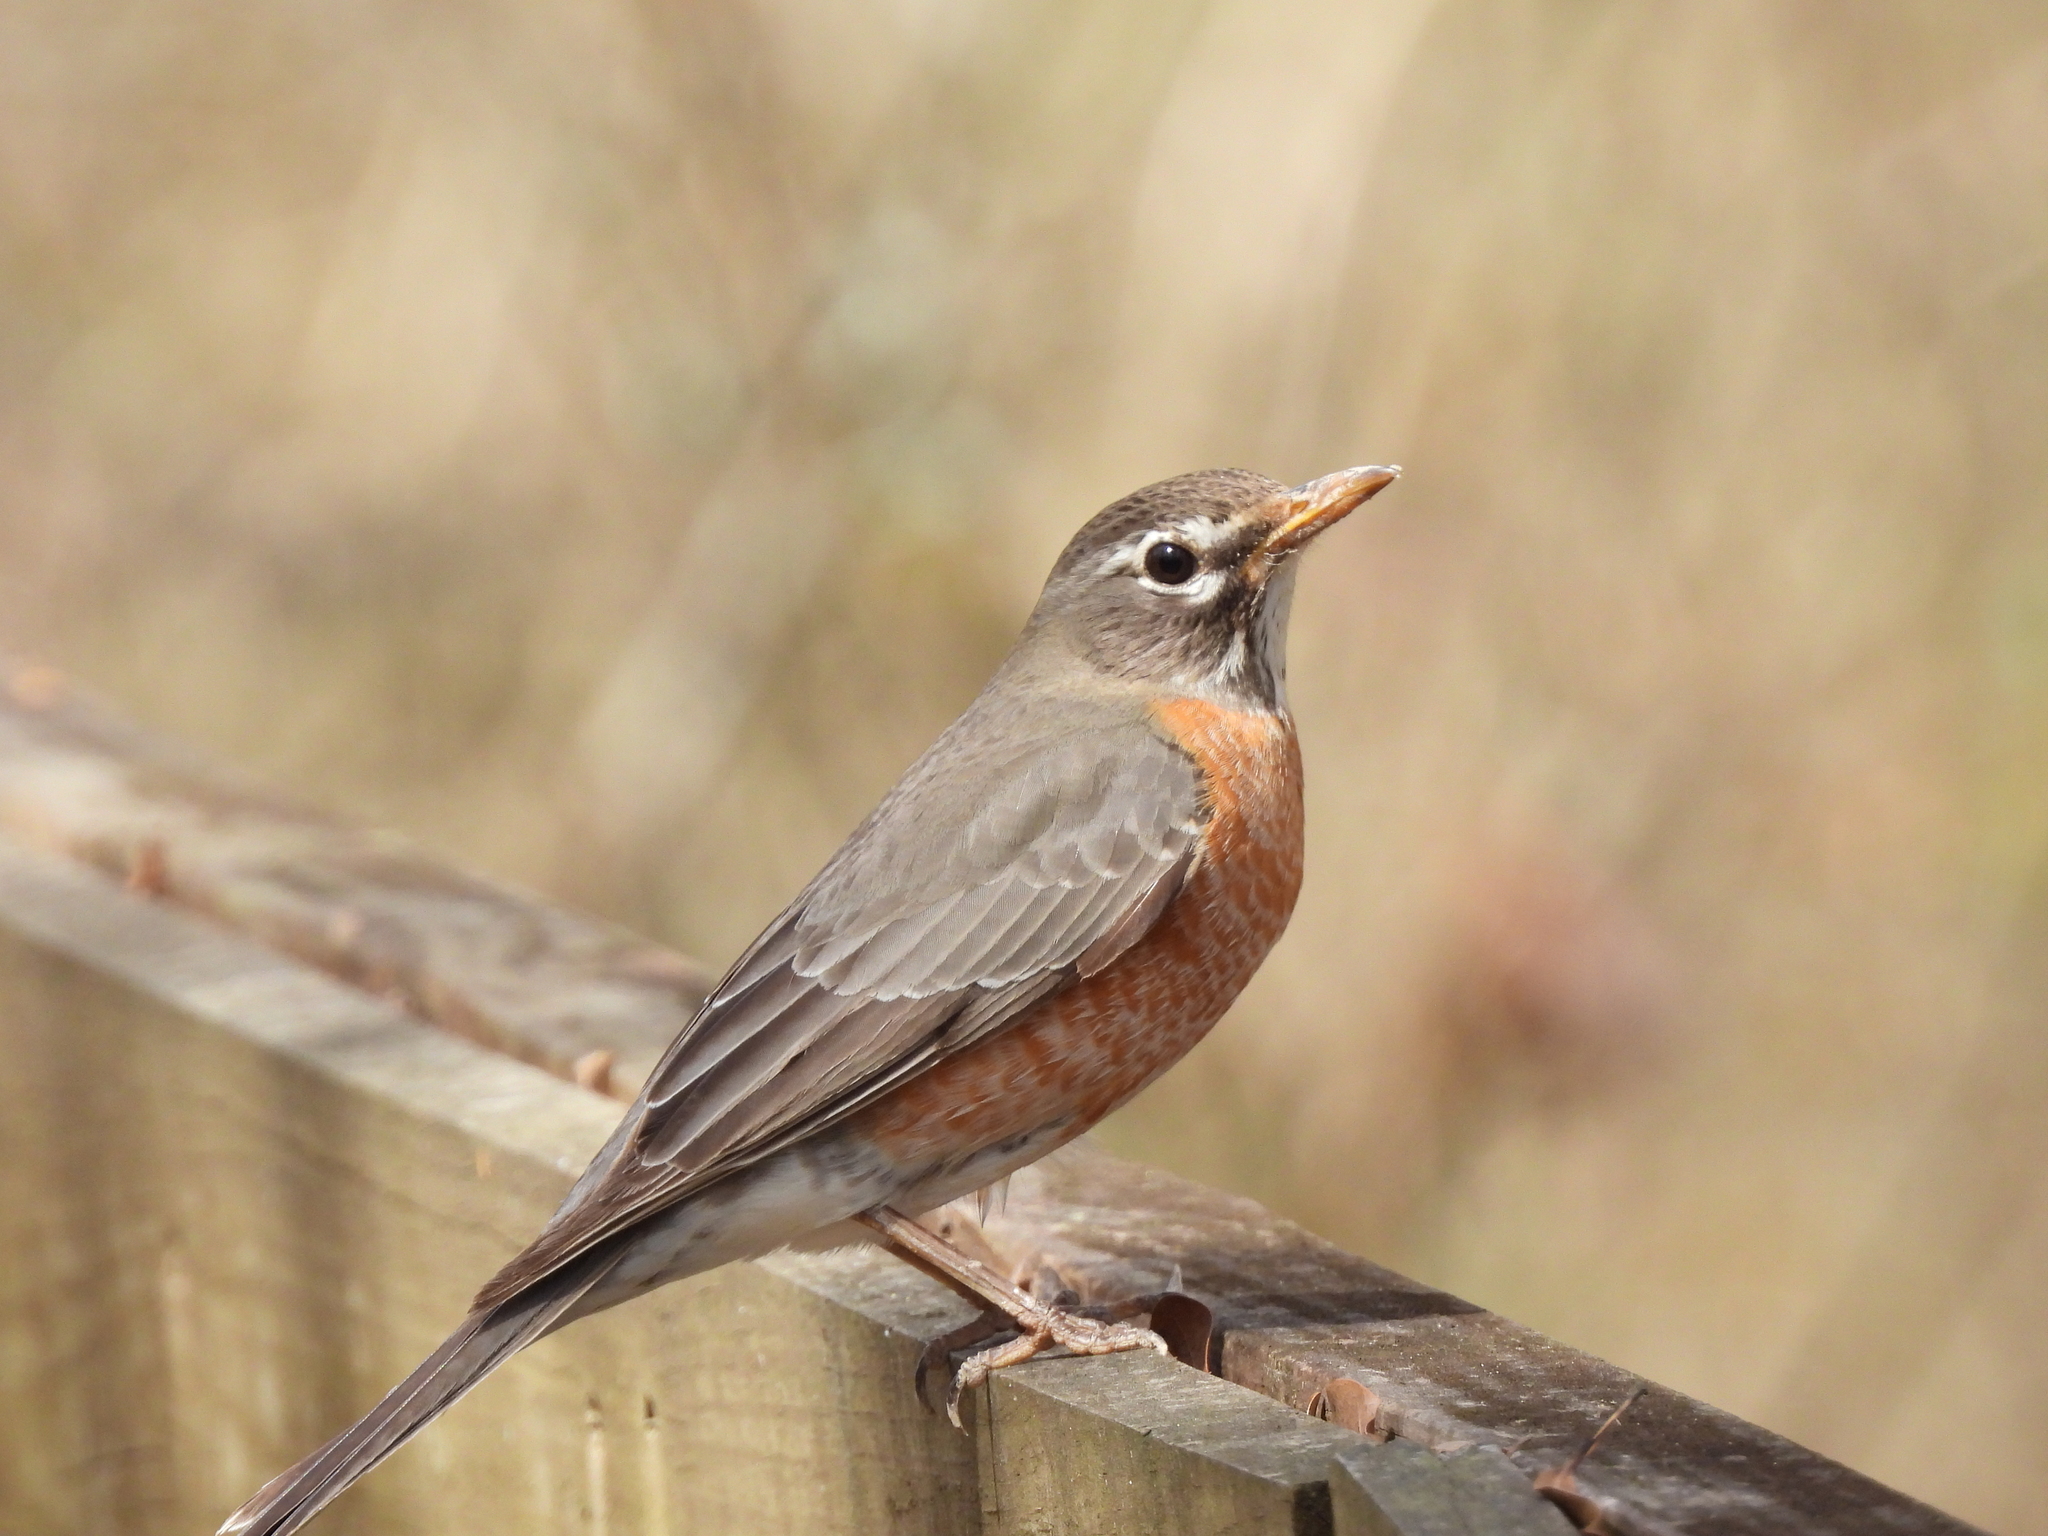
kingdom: Animalia
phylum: Chordata
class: Aves
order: Passeriformes
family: Turdidae
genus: Turdus
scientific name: Turdus migratorius
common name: American robin
